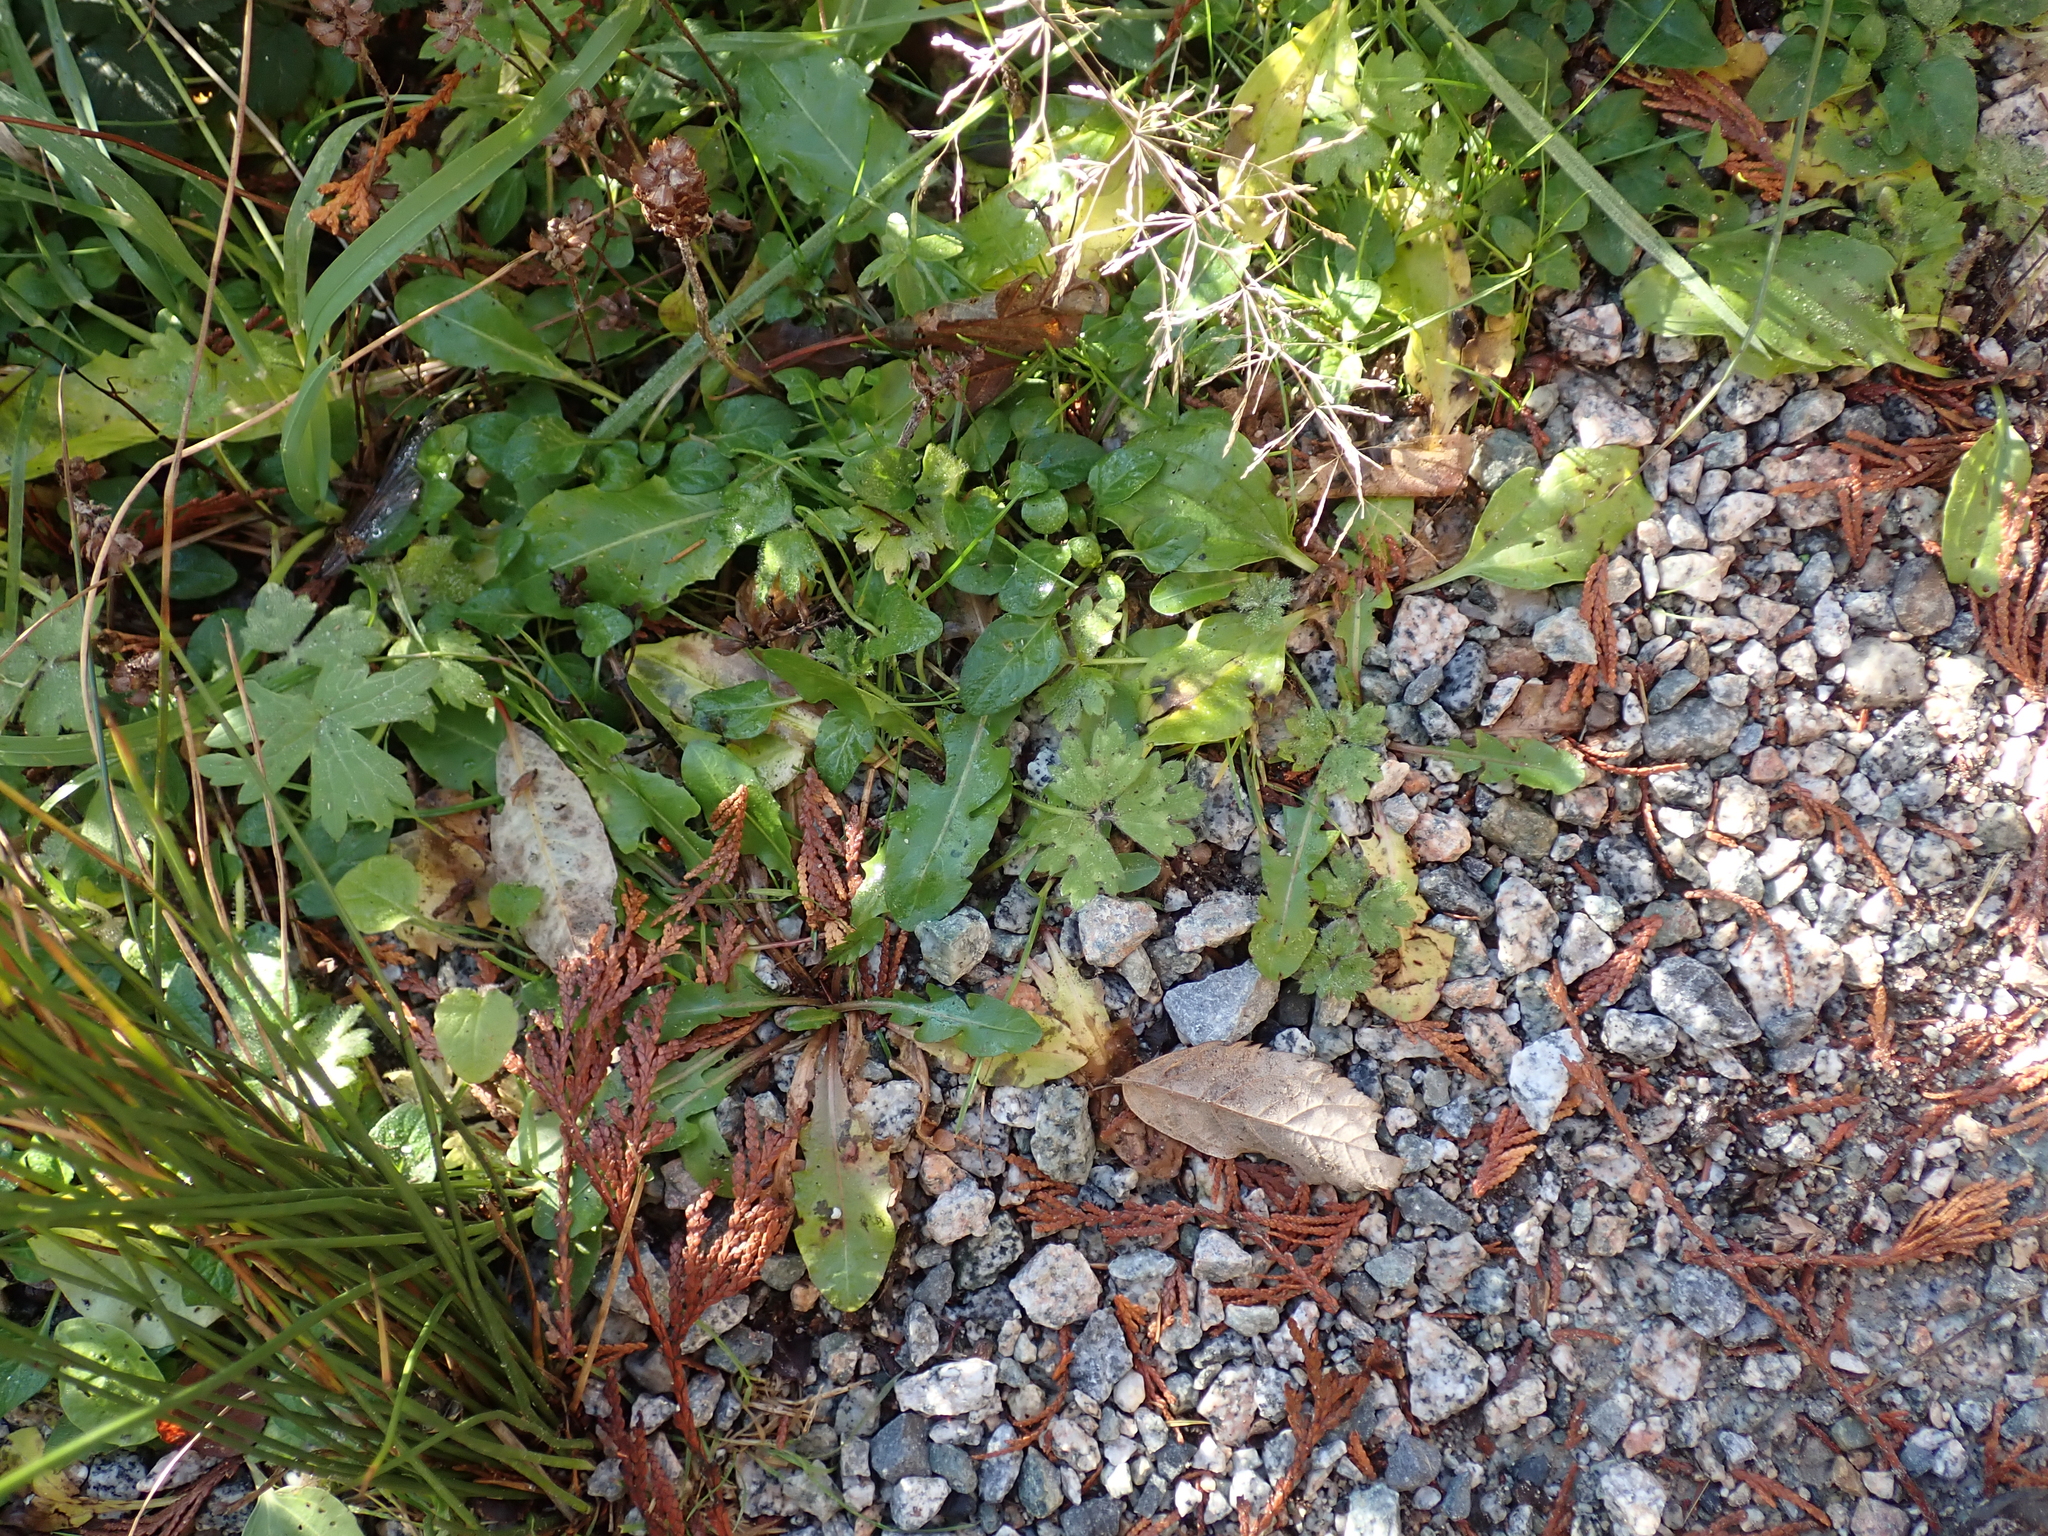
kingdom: Plantae
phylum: Tracheophyta
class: Magnoliopsida
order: Ranunculales
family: Ranunculaceae
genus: Ranunculus
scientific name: Ranunculus repens
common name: Creeping buttercup
